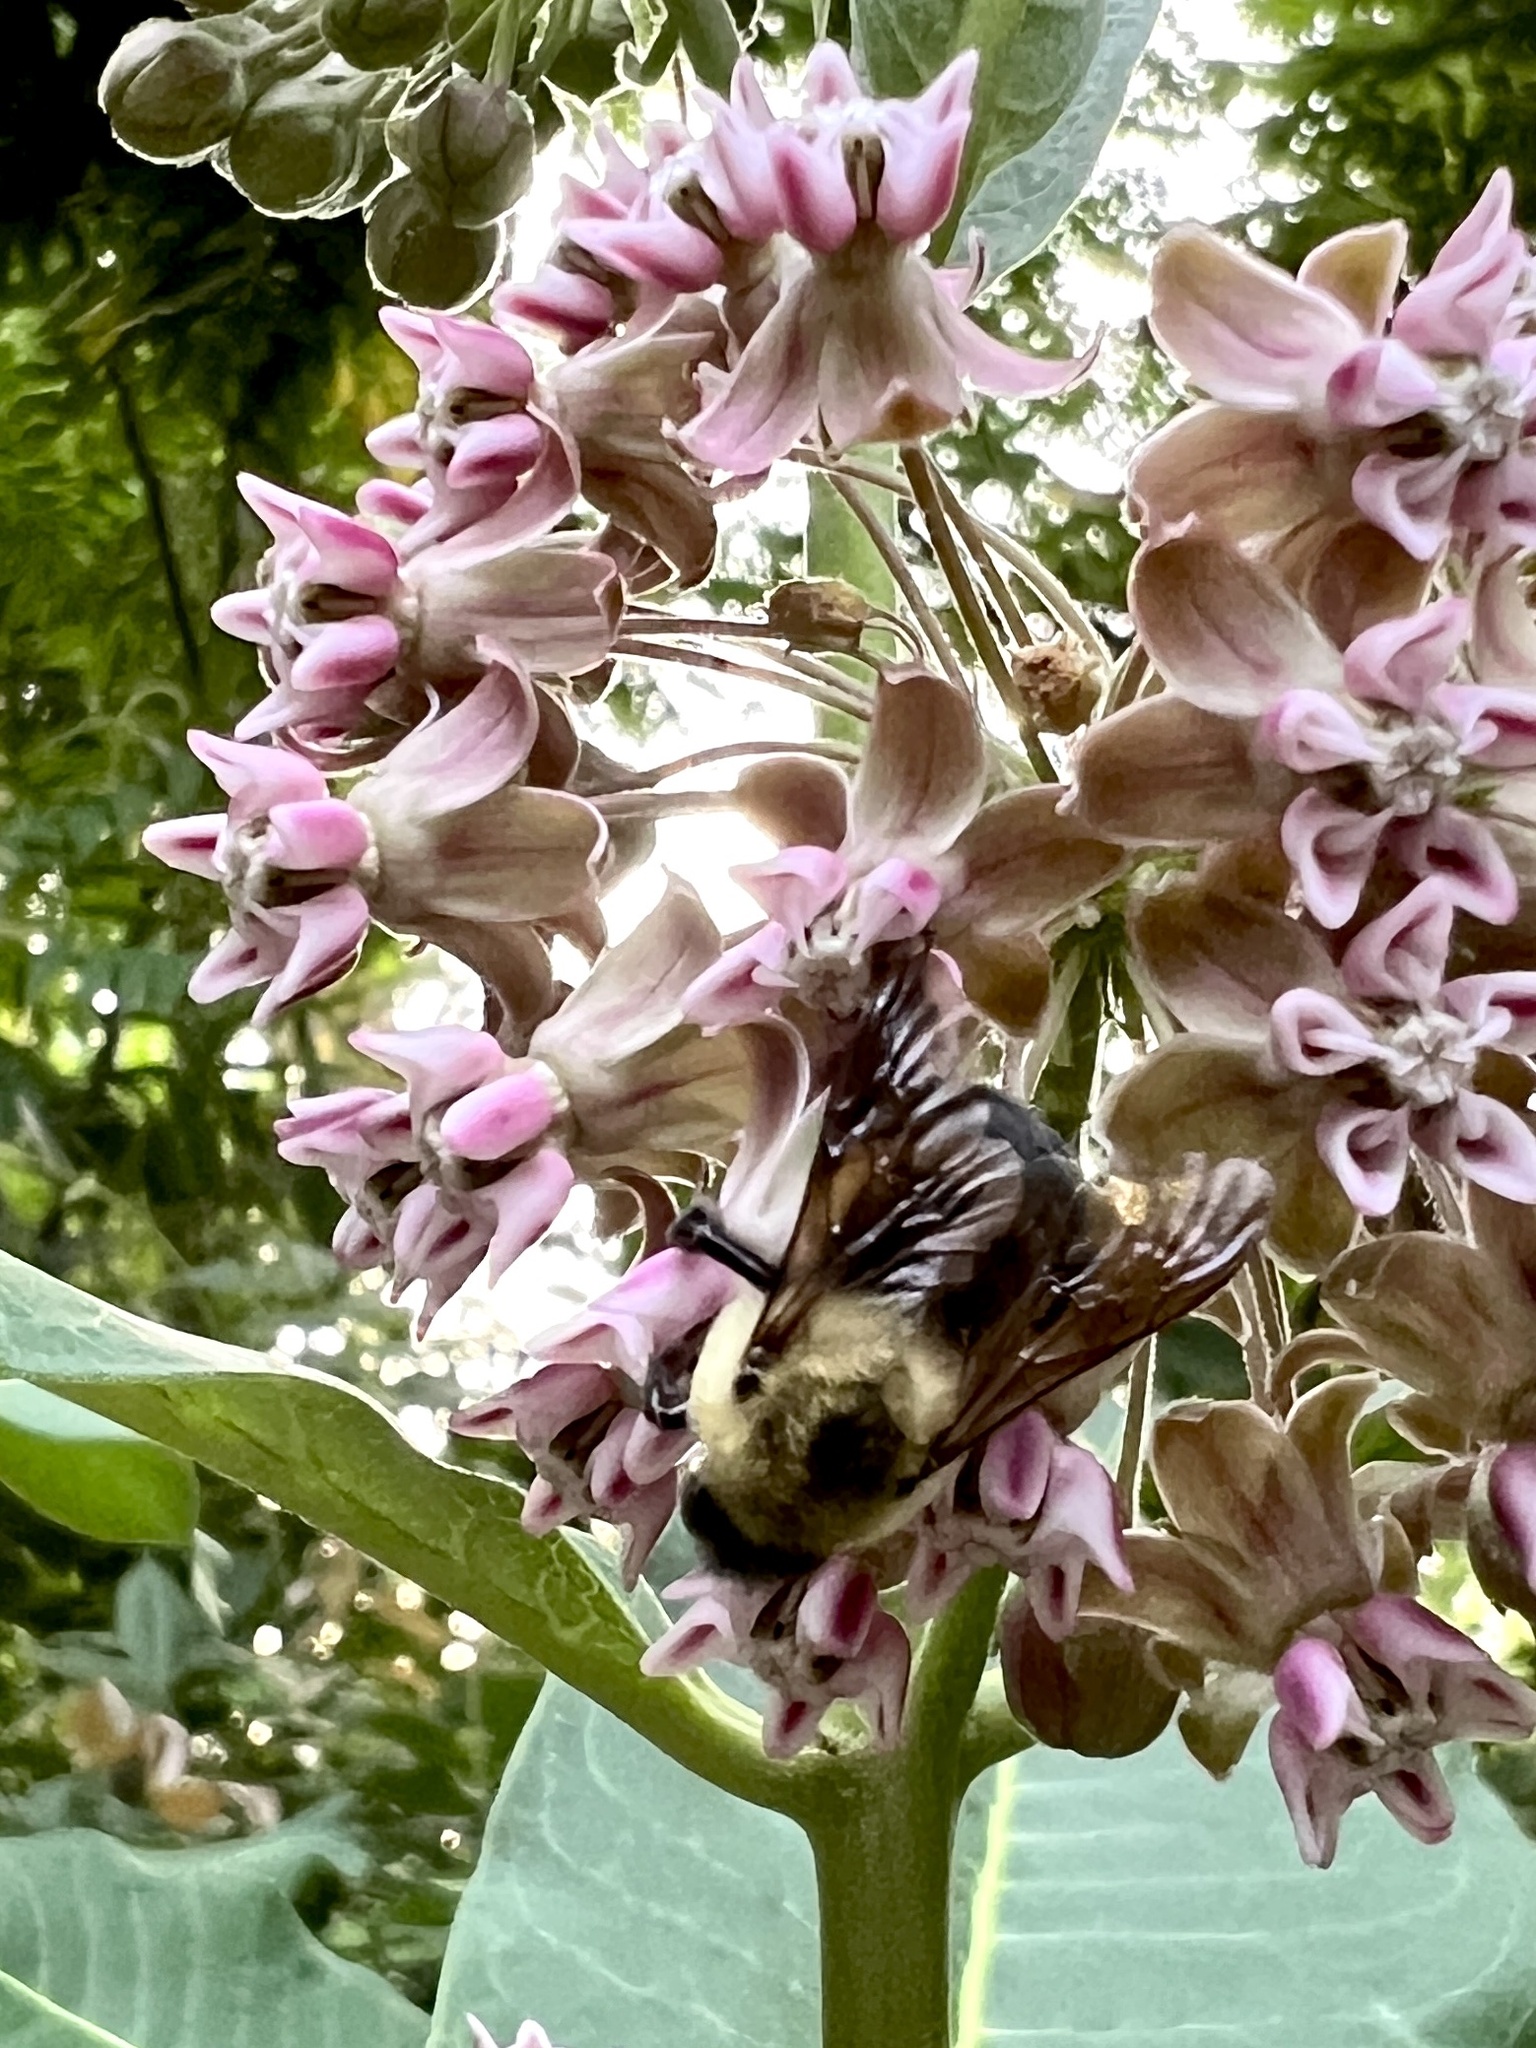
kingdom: Animalia
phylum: Arthropoda
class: Insecta
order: Hymenoptera
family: Apidae
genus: Bombus
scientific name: Bombus griseocollis
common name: Brown-belted bumble bee
